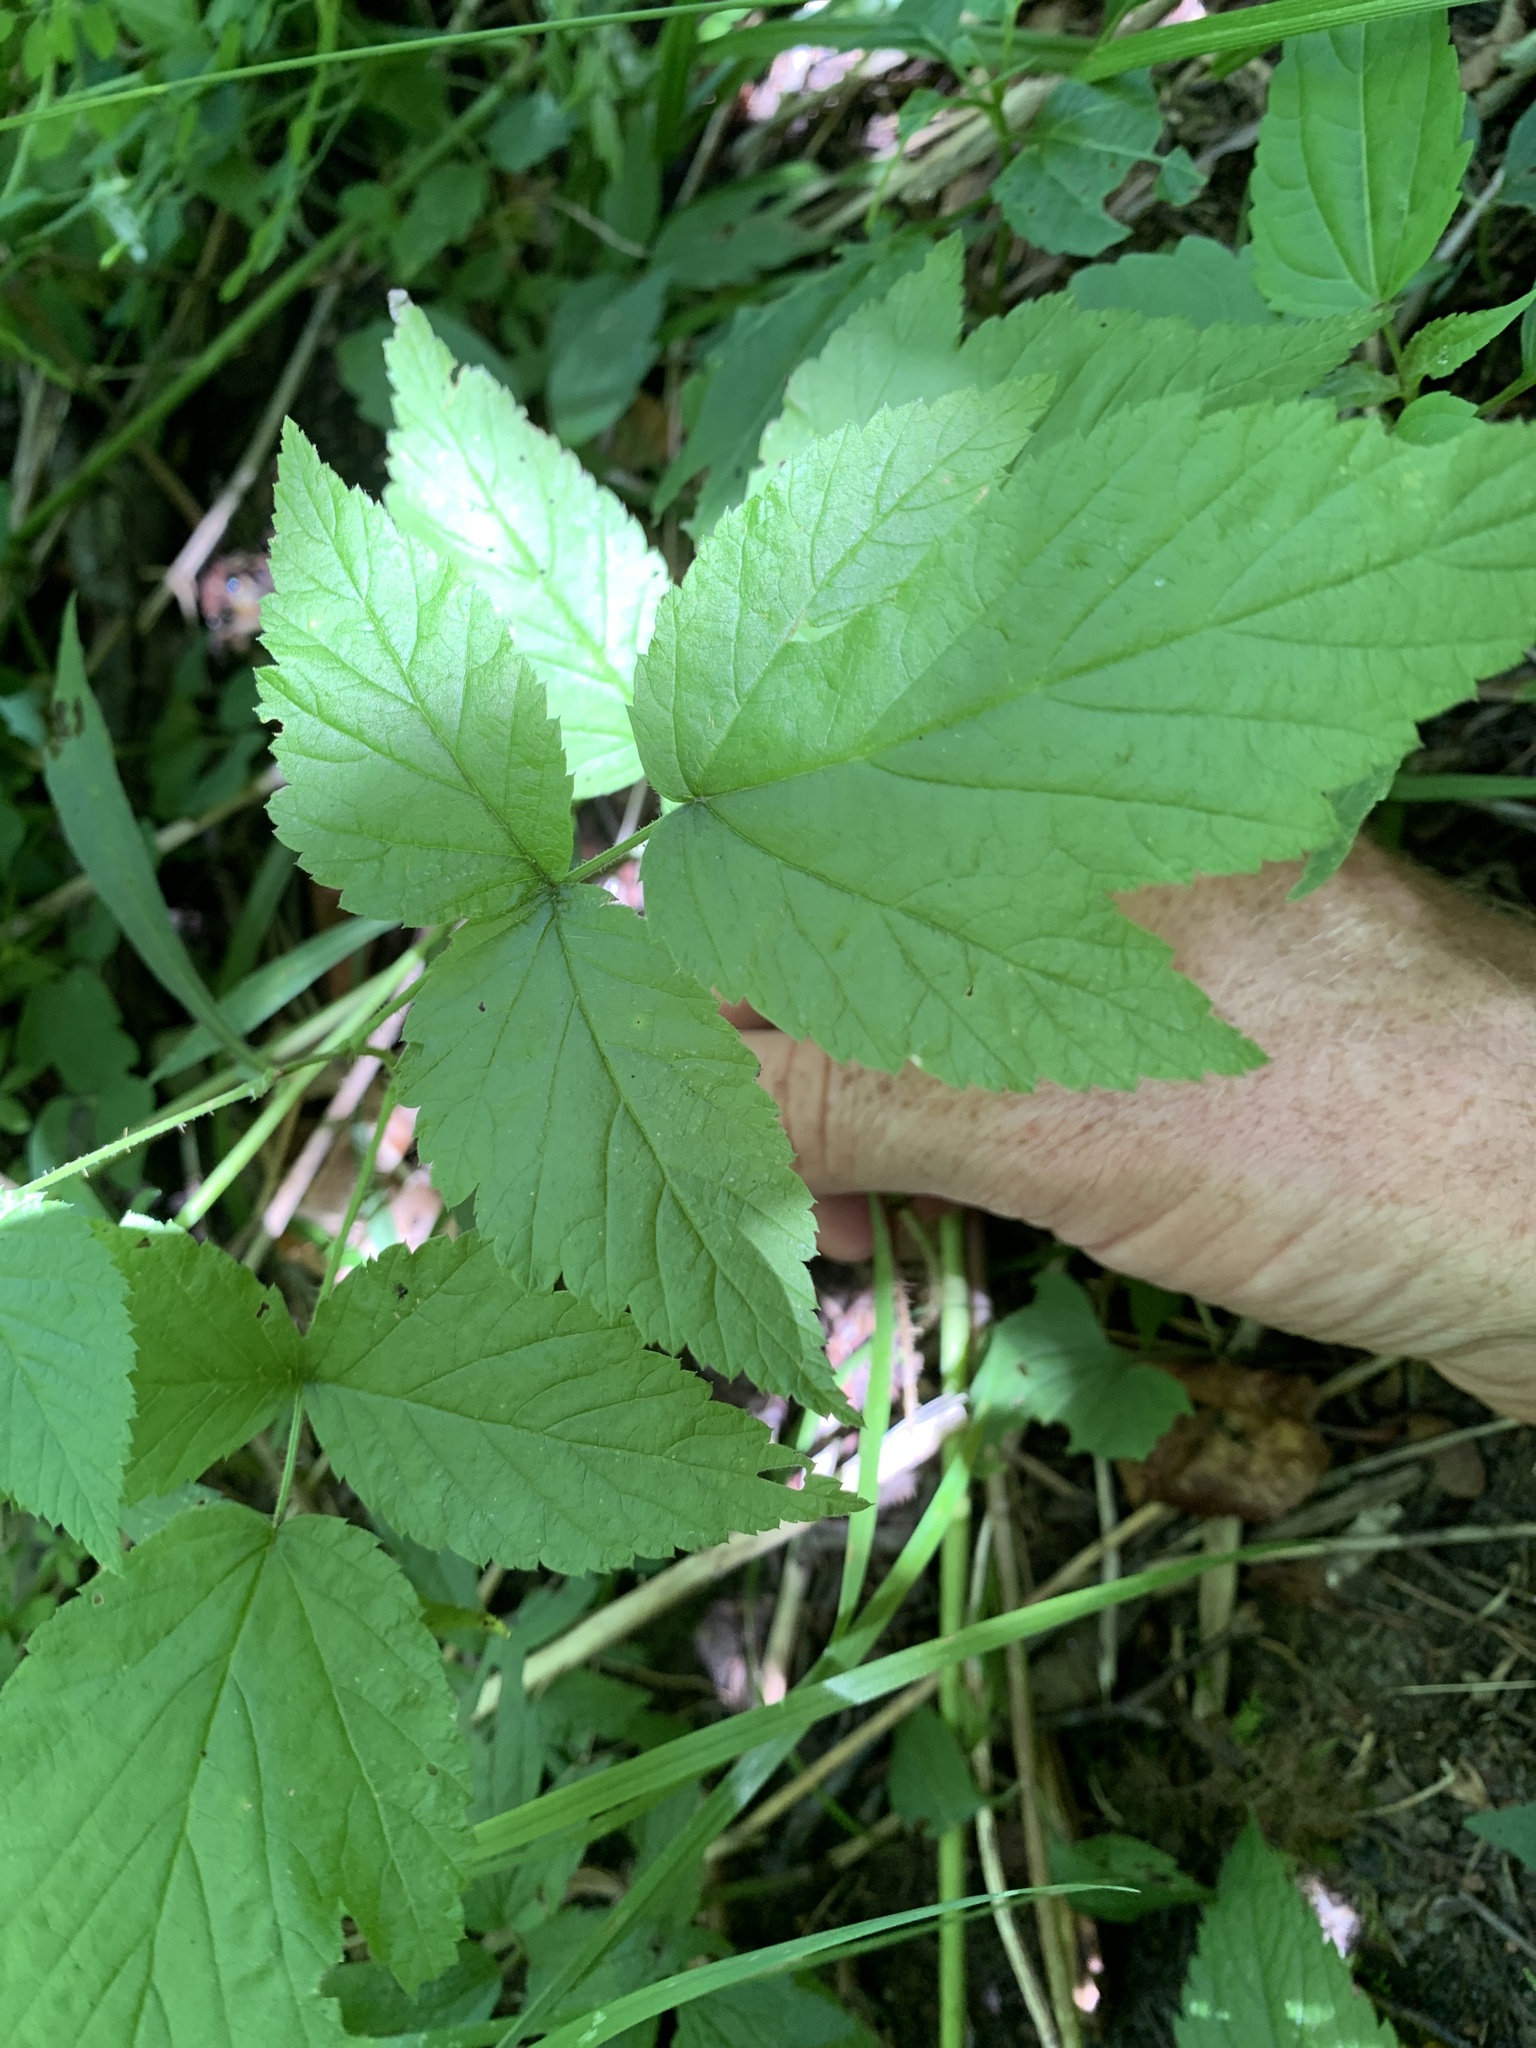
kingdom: Plantae
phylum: Tracheophyta
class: Magnoliopsida
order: Rosales
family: Rosaceae
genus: Rubus
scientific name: Rubus idaeus
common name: Raspberry
